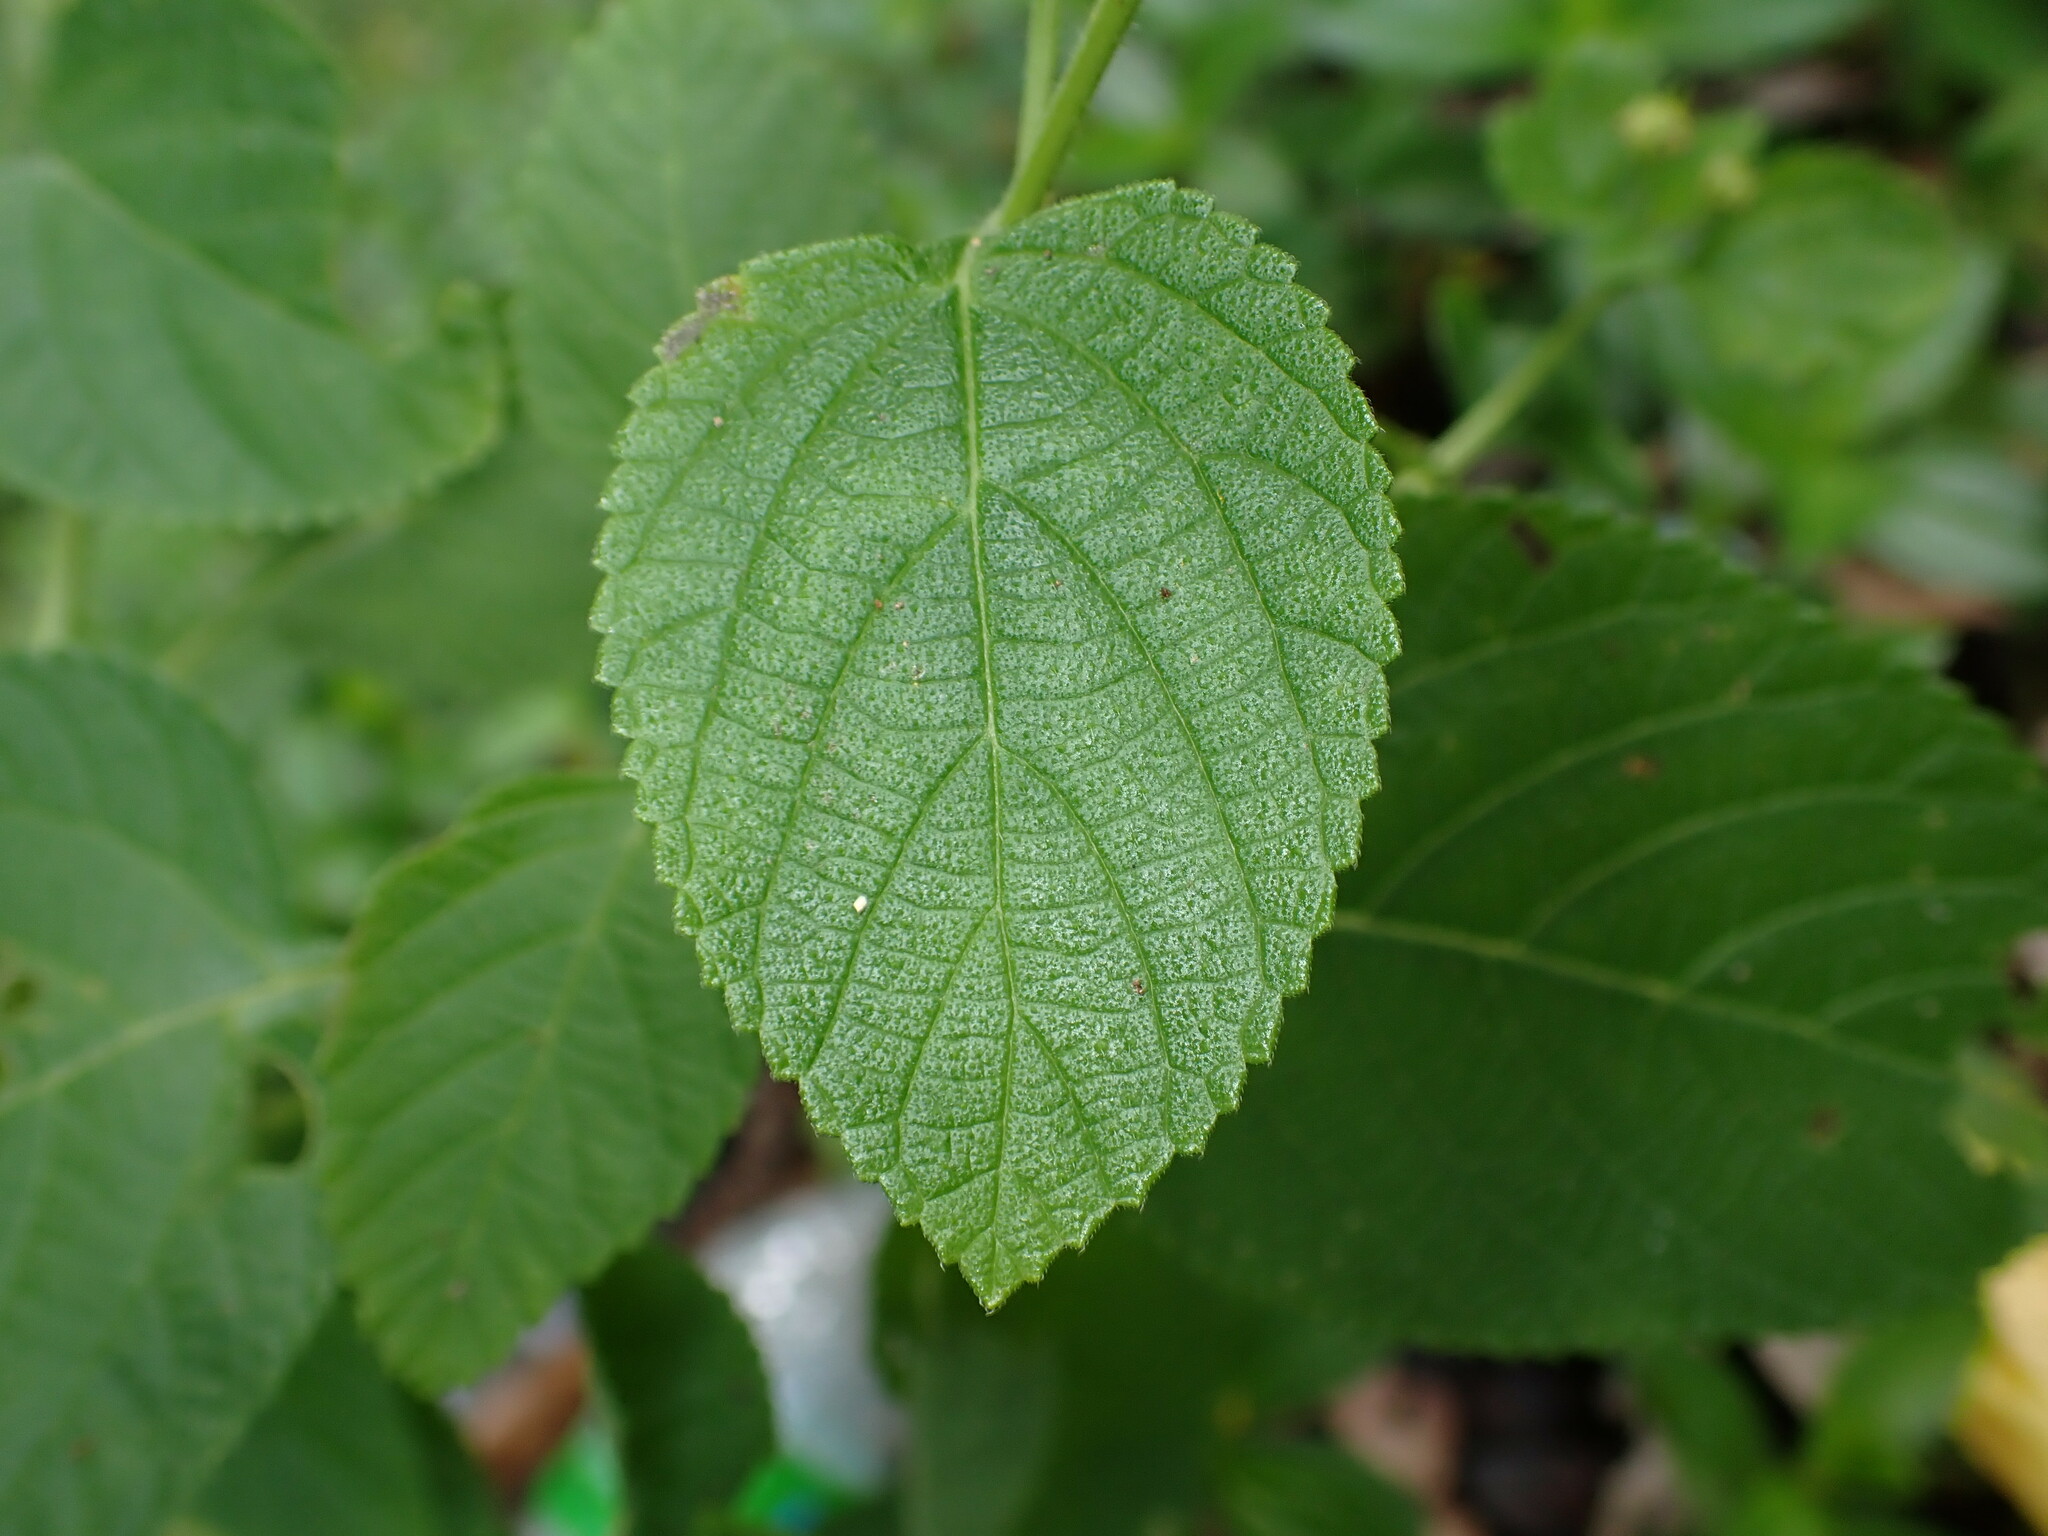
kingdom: Plantae
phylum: Tracheophyta
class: Magnoliopsida
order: Lamiales
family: Verbenaceae
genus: Lantana
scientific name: Lantana camara
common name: Lantana
